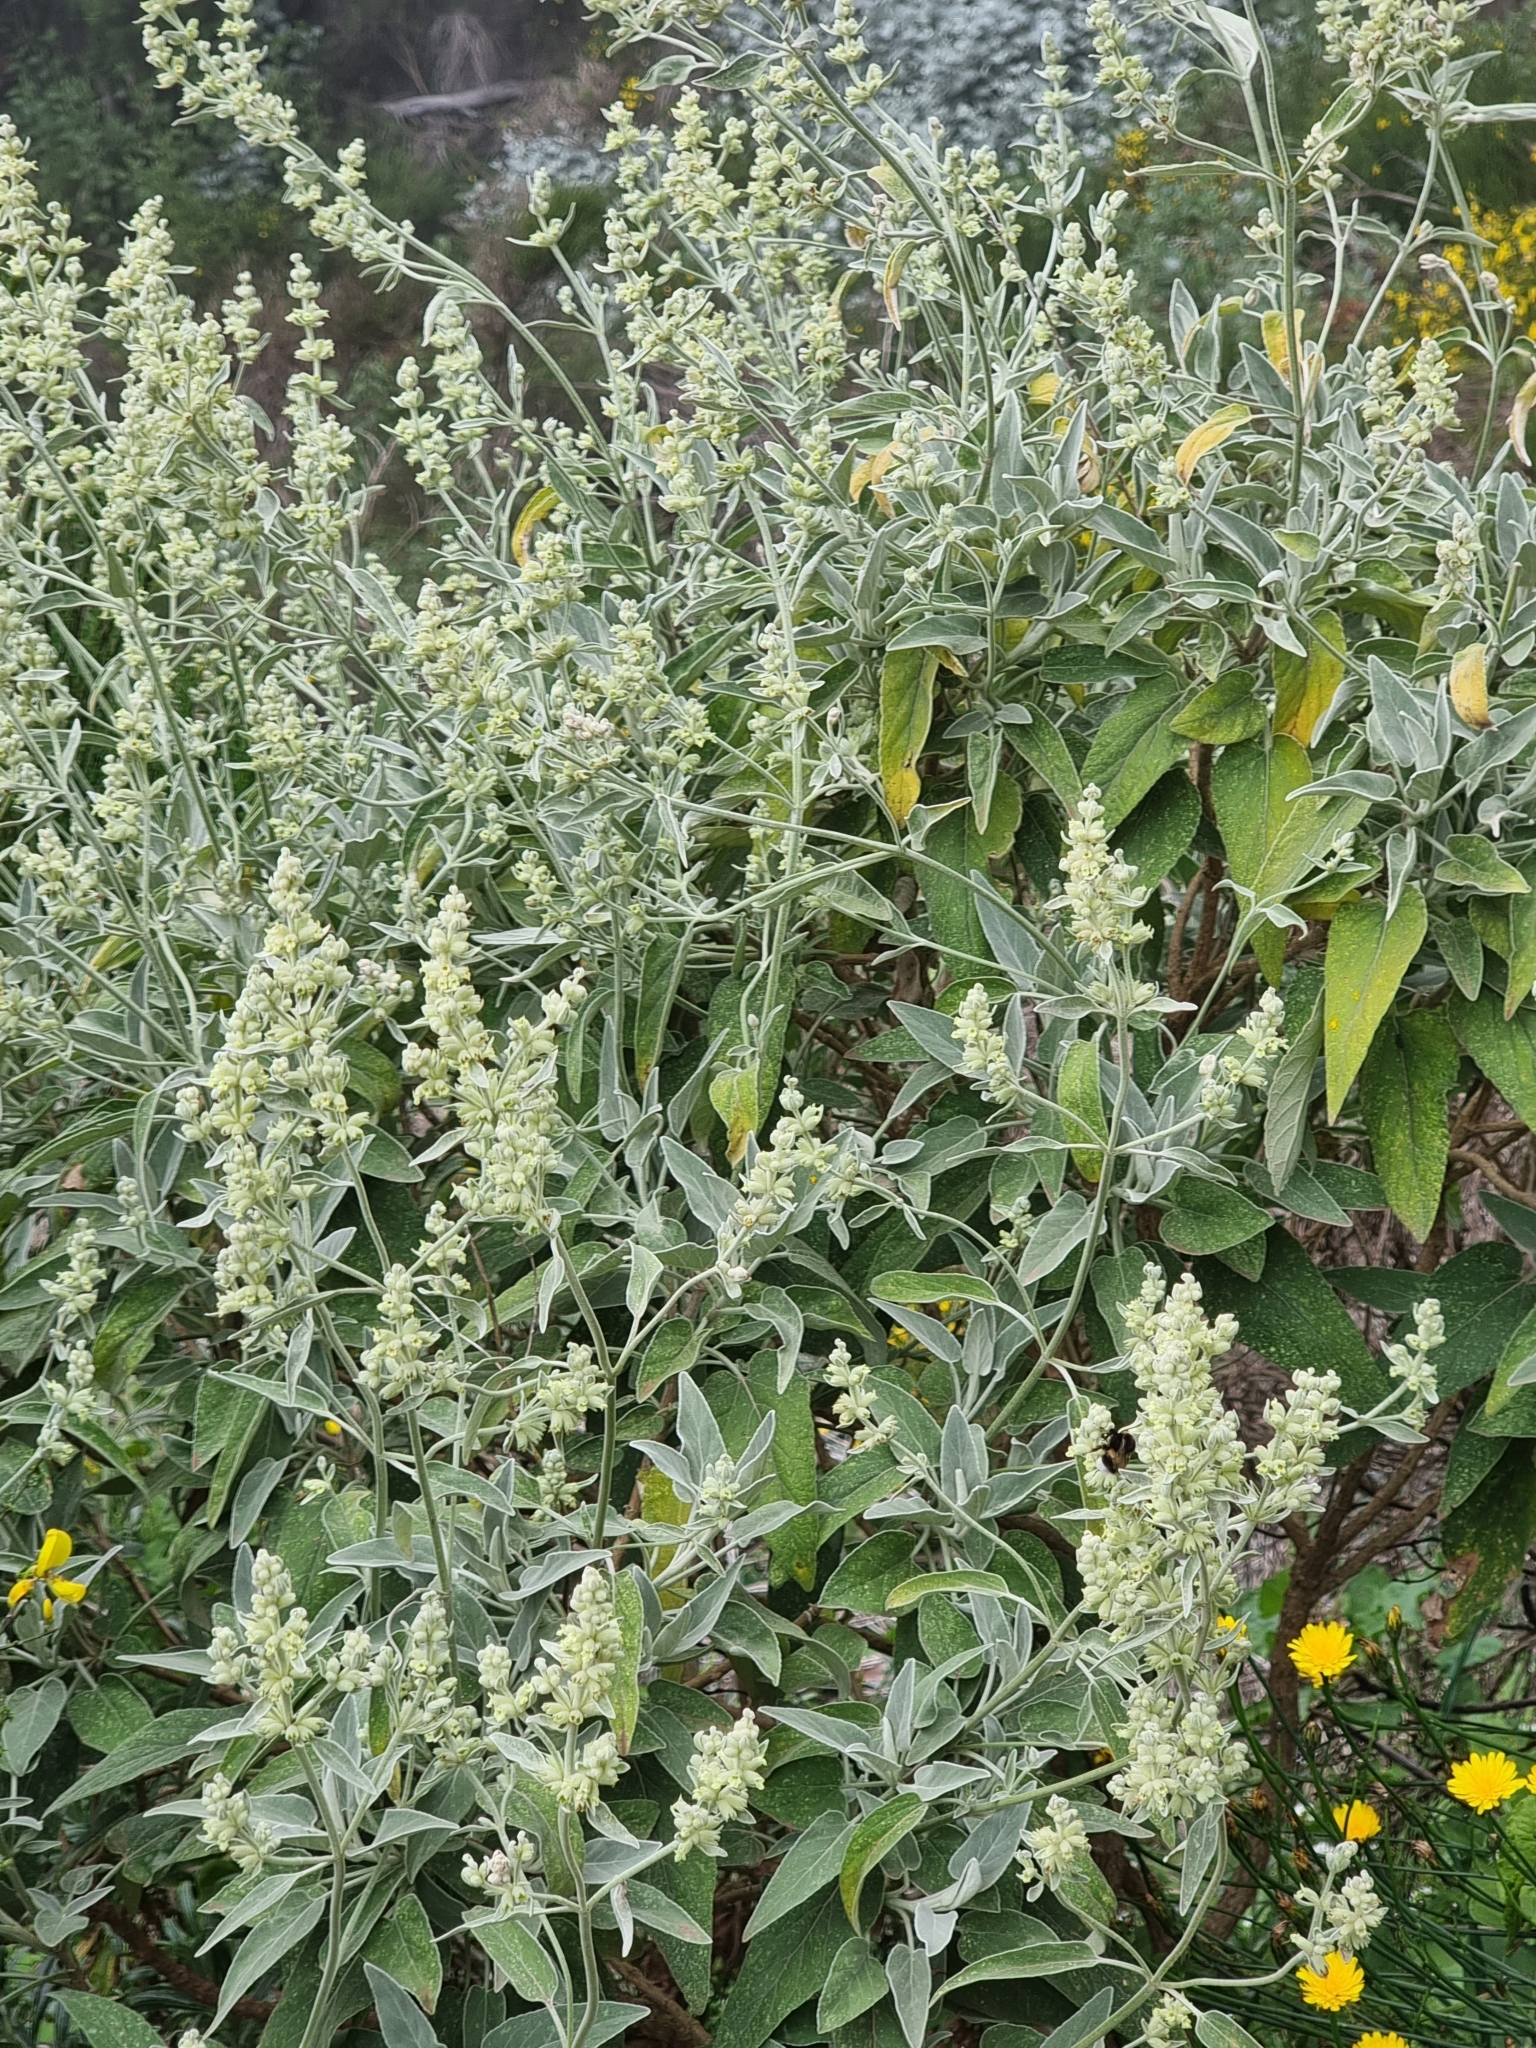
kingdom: Plantae
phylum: Tracheophyta
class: Magnoliopsida
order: Lamiales
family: Lamiaceae
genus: Sideritis
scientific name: Sideritis candicans
